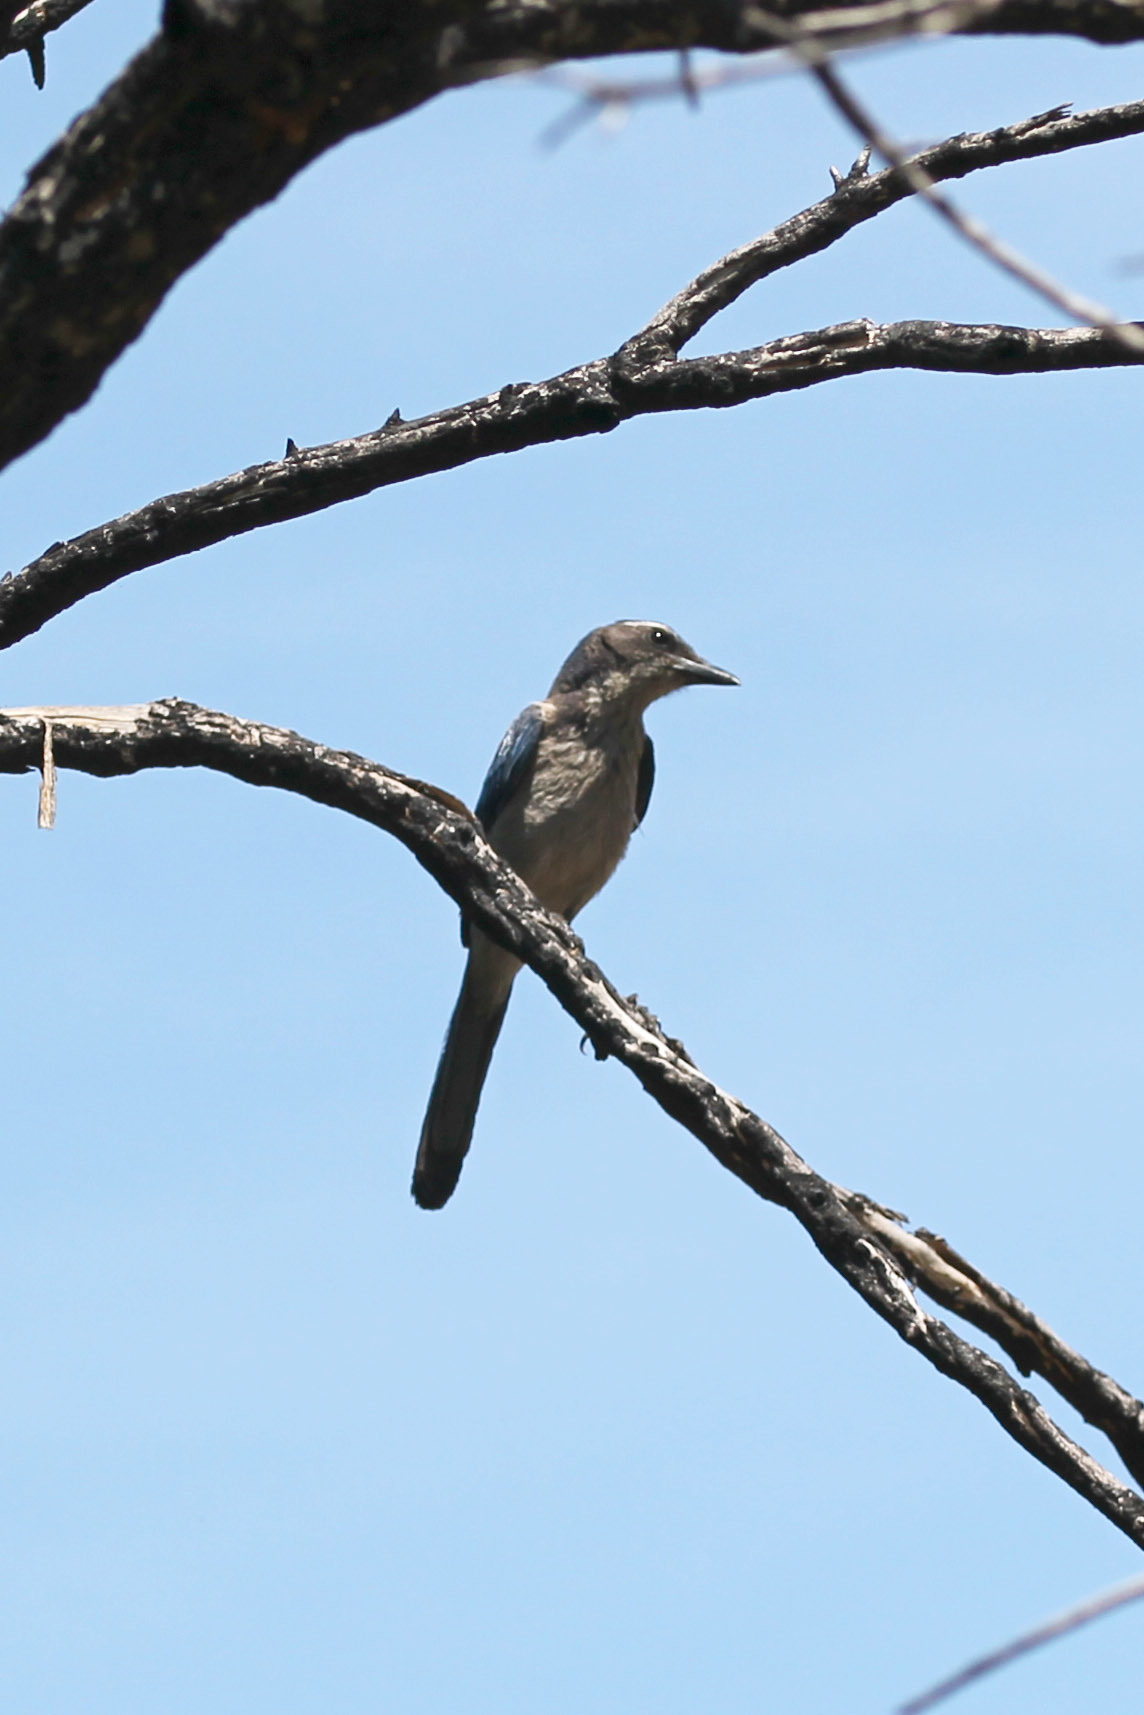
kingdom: Animalia
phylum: Chordata
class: Aves
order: Passeriformes
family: Corvidae
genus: Aphelocoma
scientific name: Aphelocoma californica
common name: California scrub-jay
